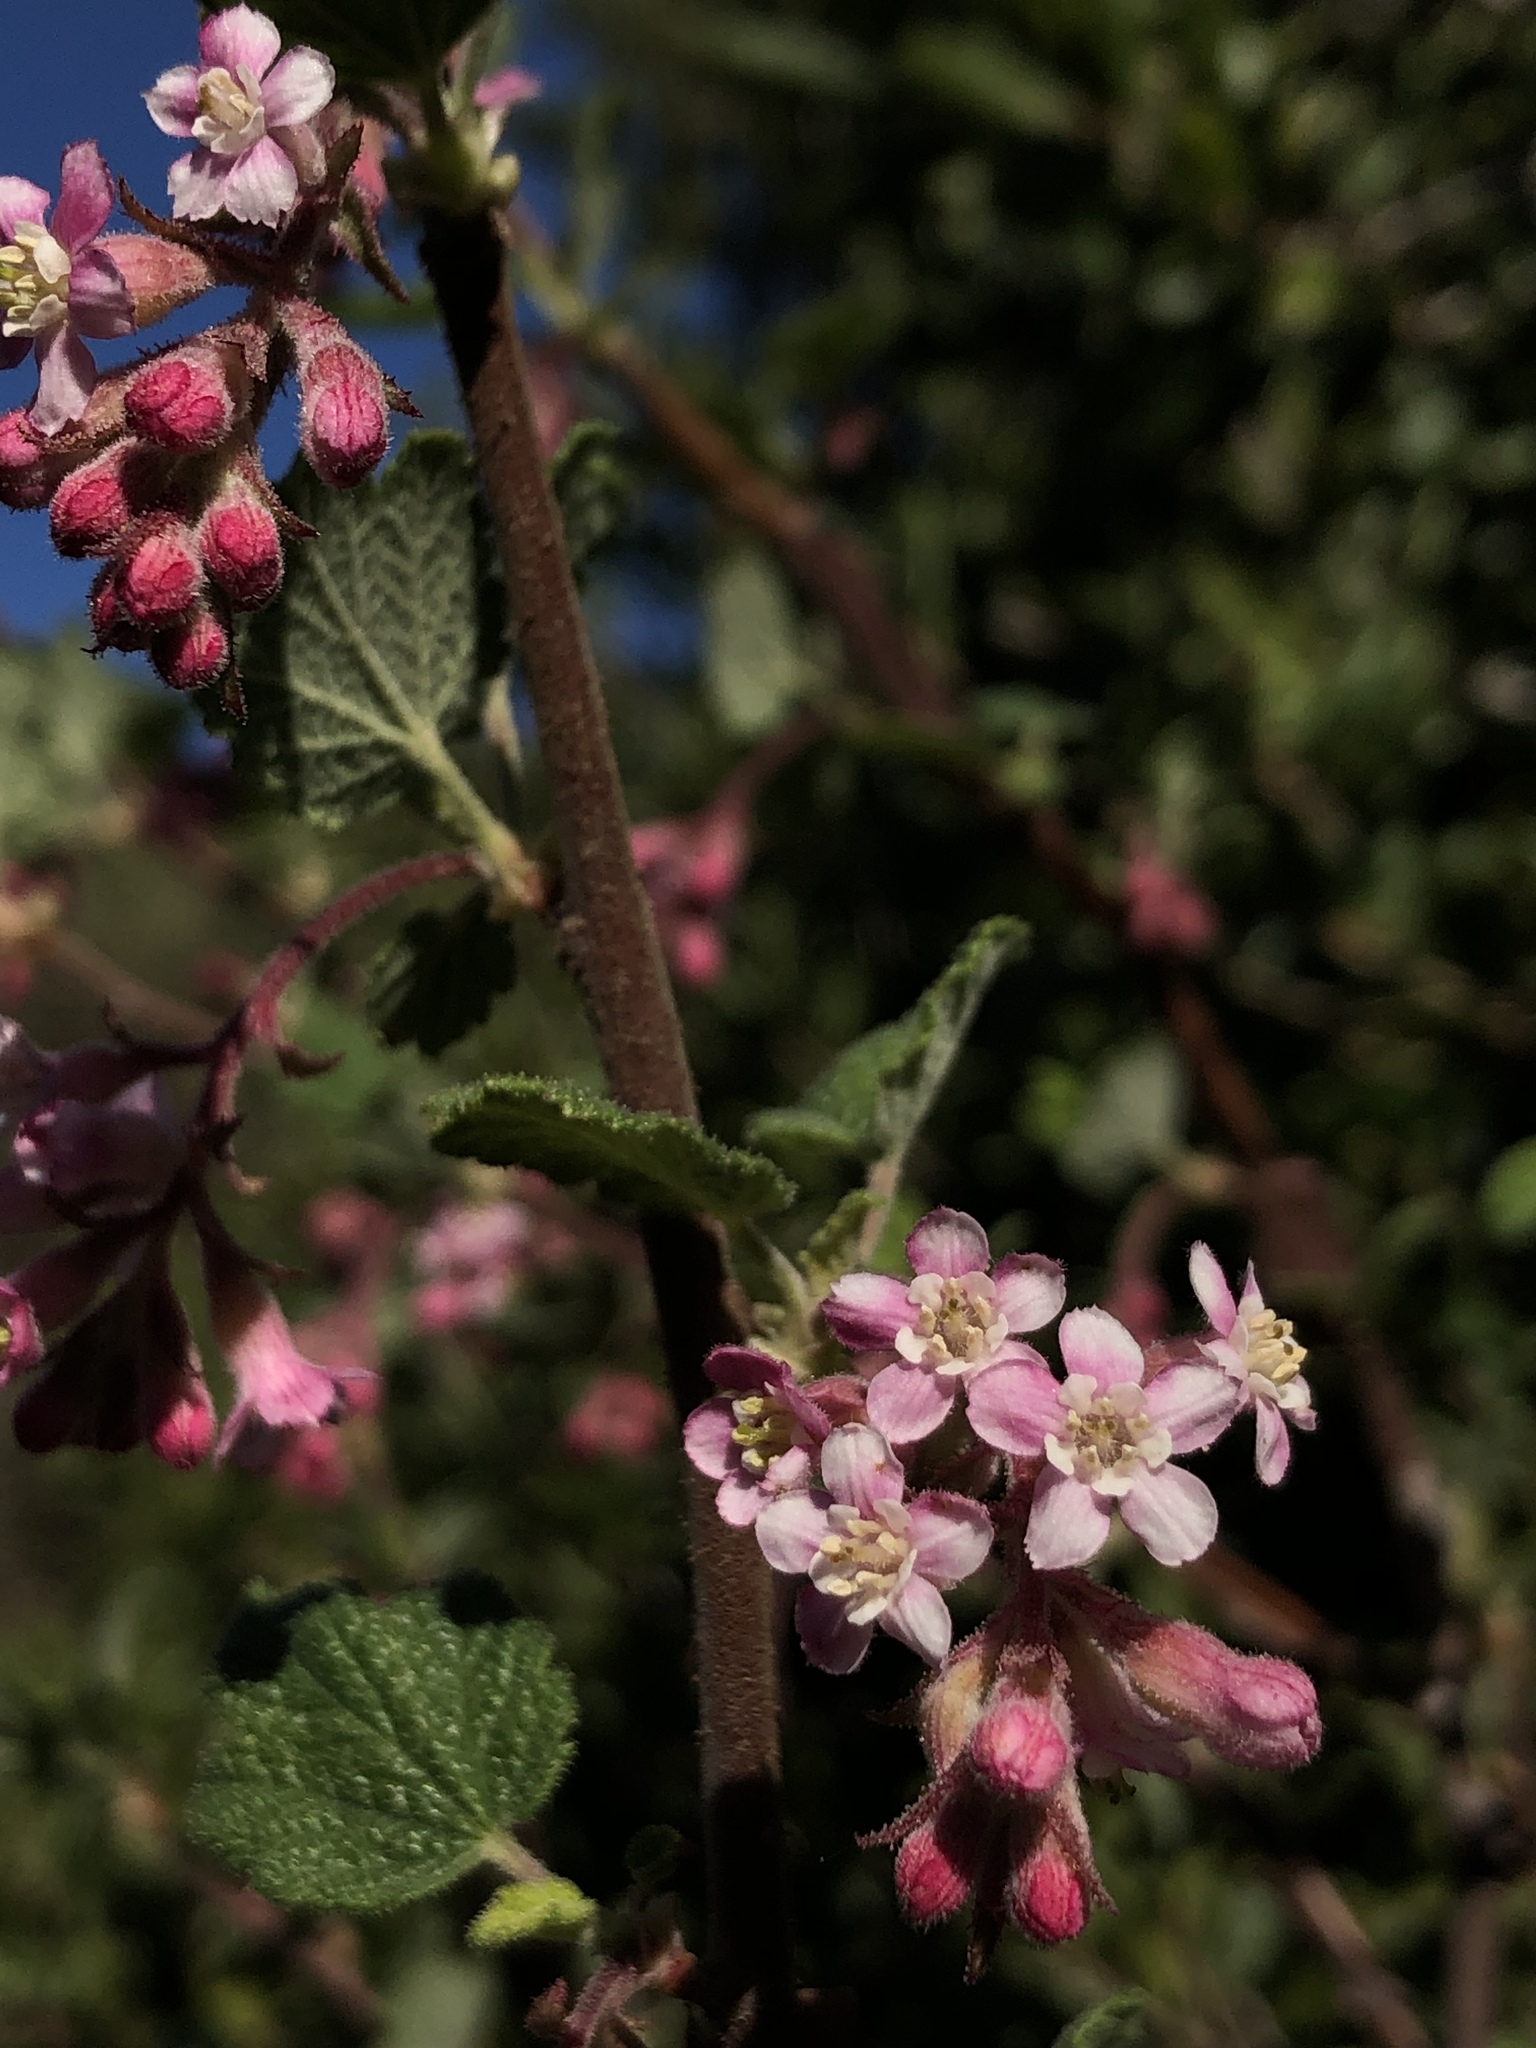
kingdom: Plantae
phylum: Tracheophyta
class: Magnoliopsida
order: Saxifragales
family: Grossulariaceae
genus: Ribes
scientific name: Ribes malvaceum
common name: Chaparral currant
